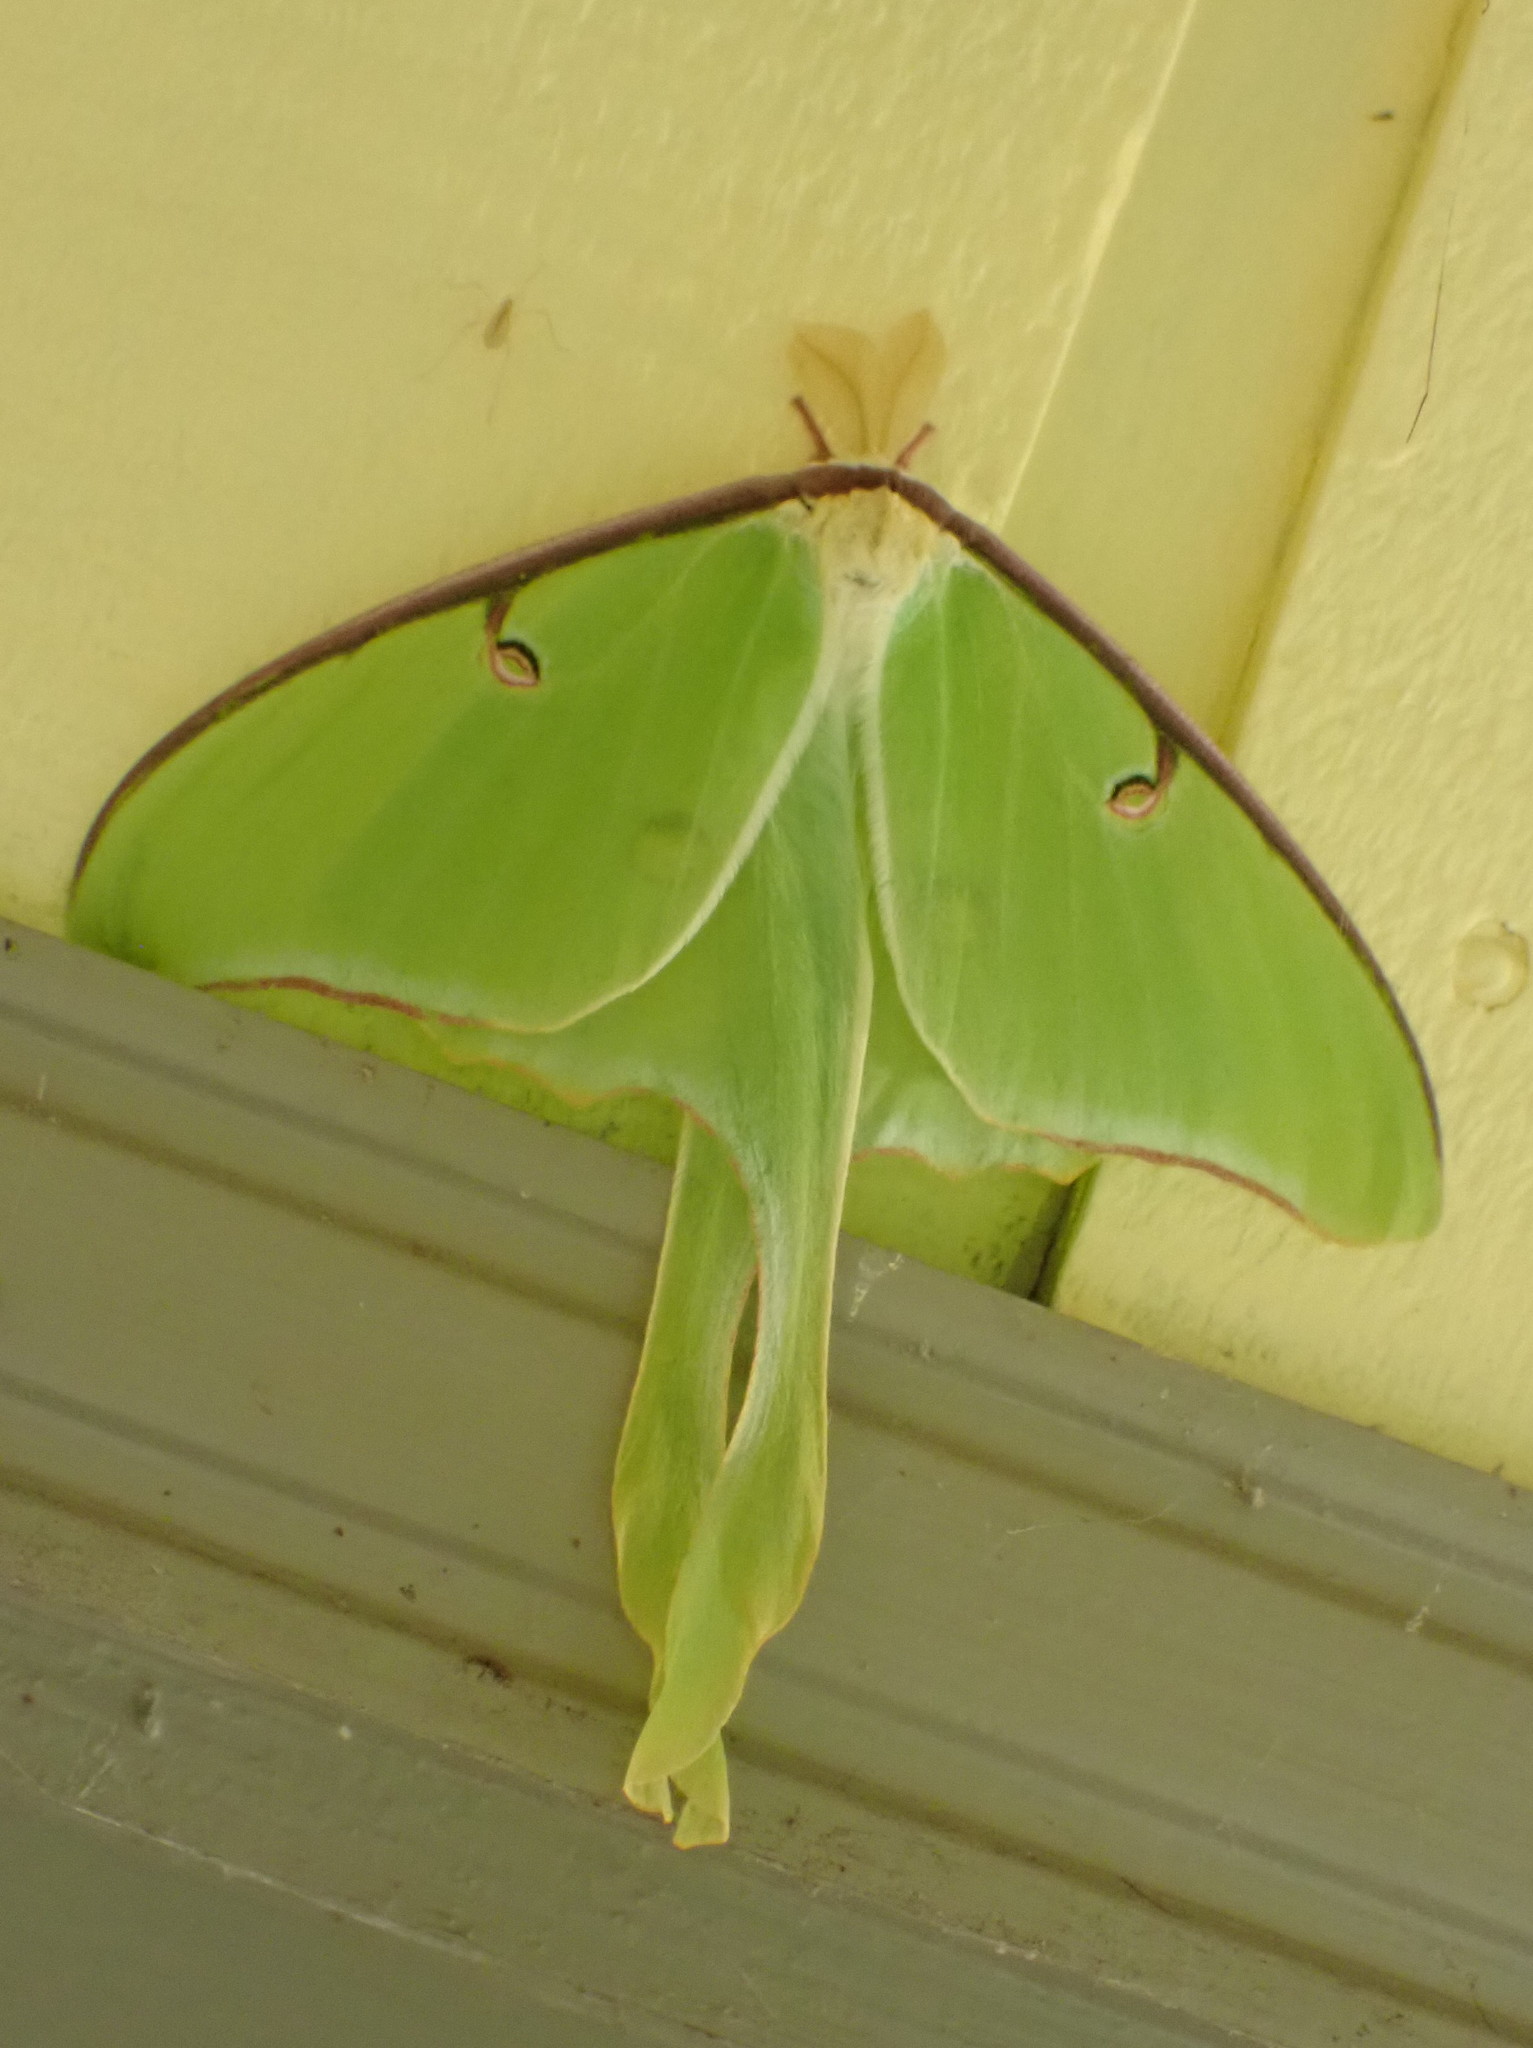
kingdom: Animalia
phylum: Arthropoda
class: Insecta
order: Lepidoptera
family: Saturniidae
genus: Actias
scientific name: Actias luna
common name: Luna moth
